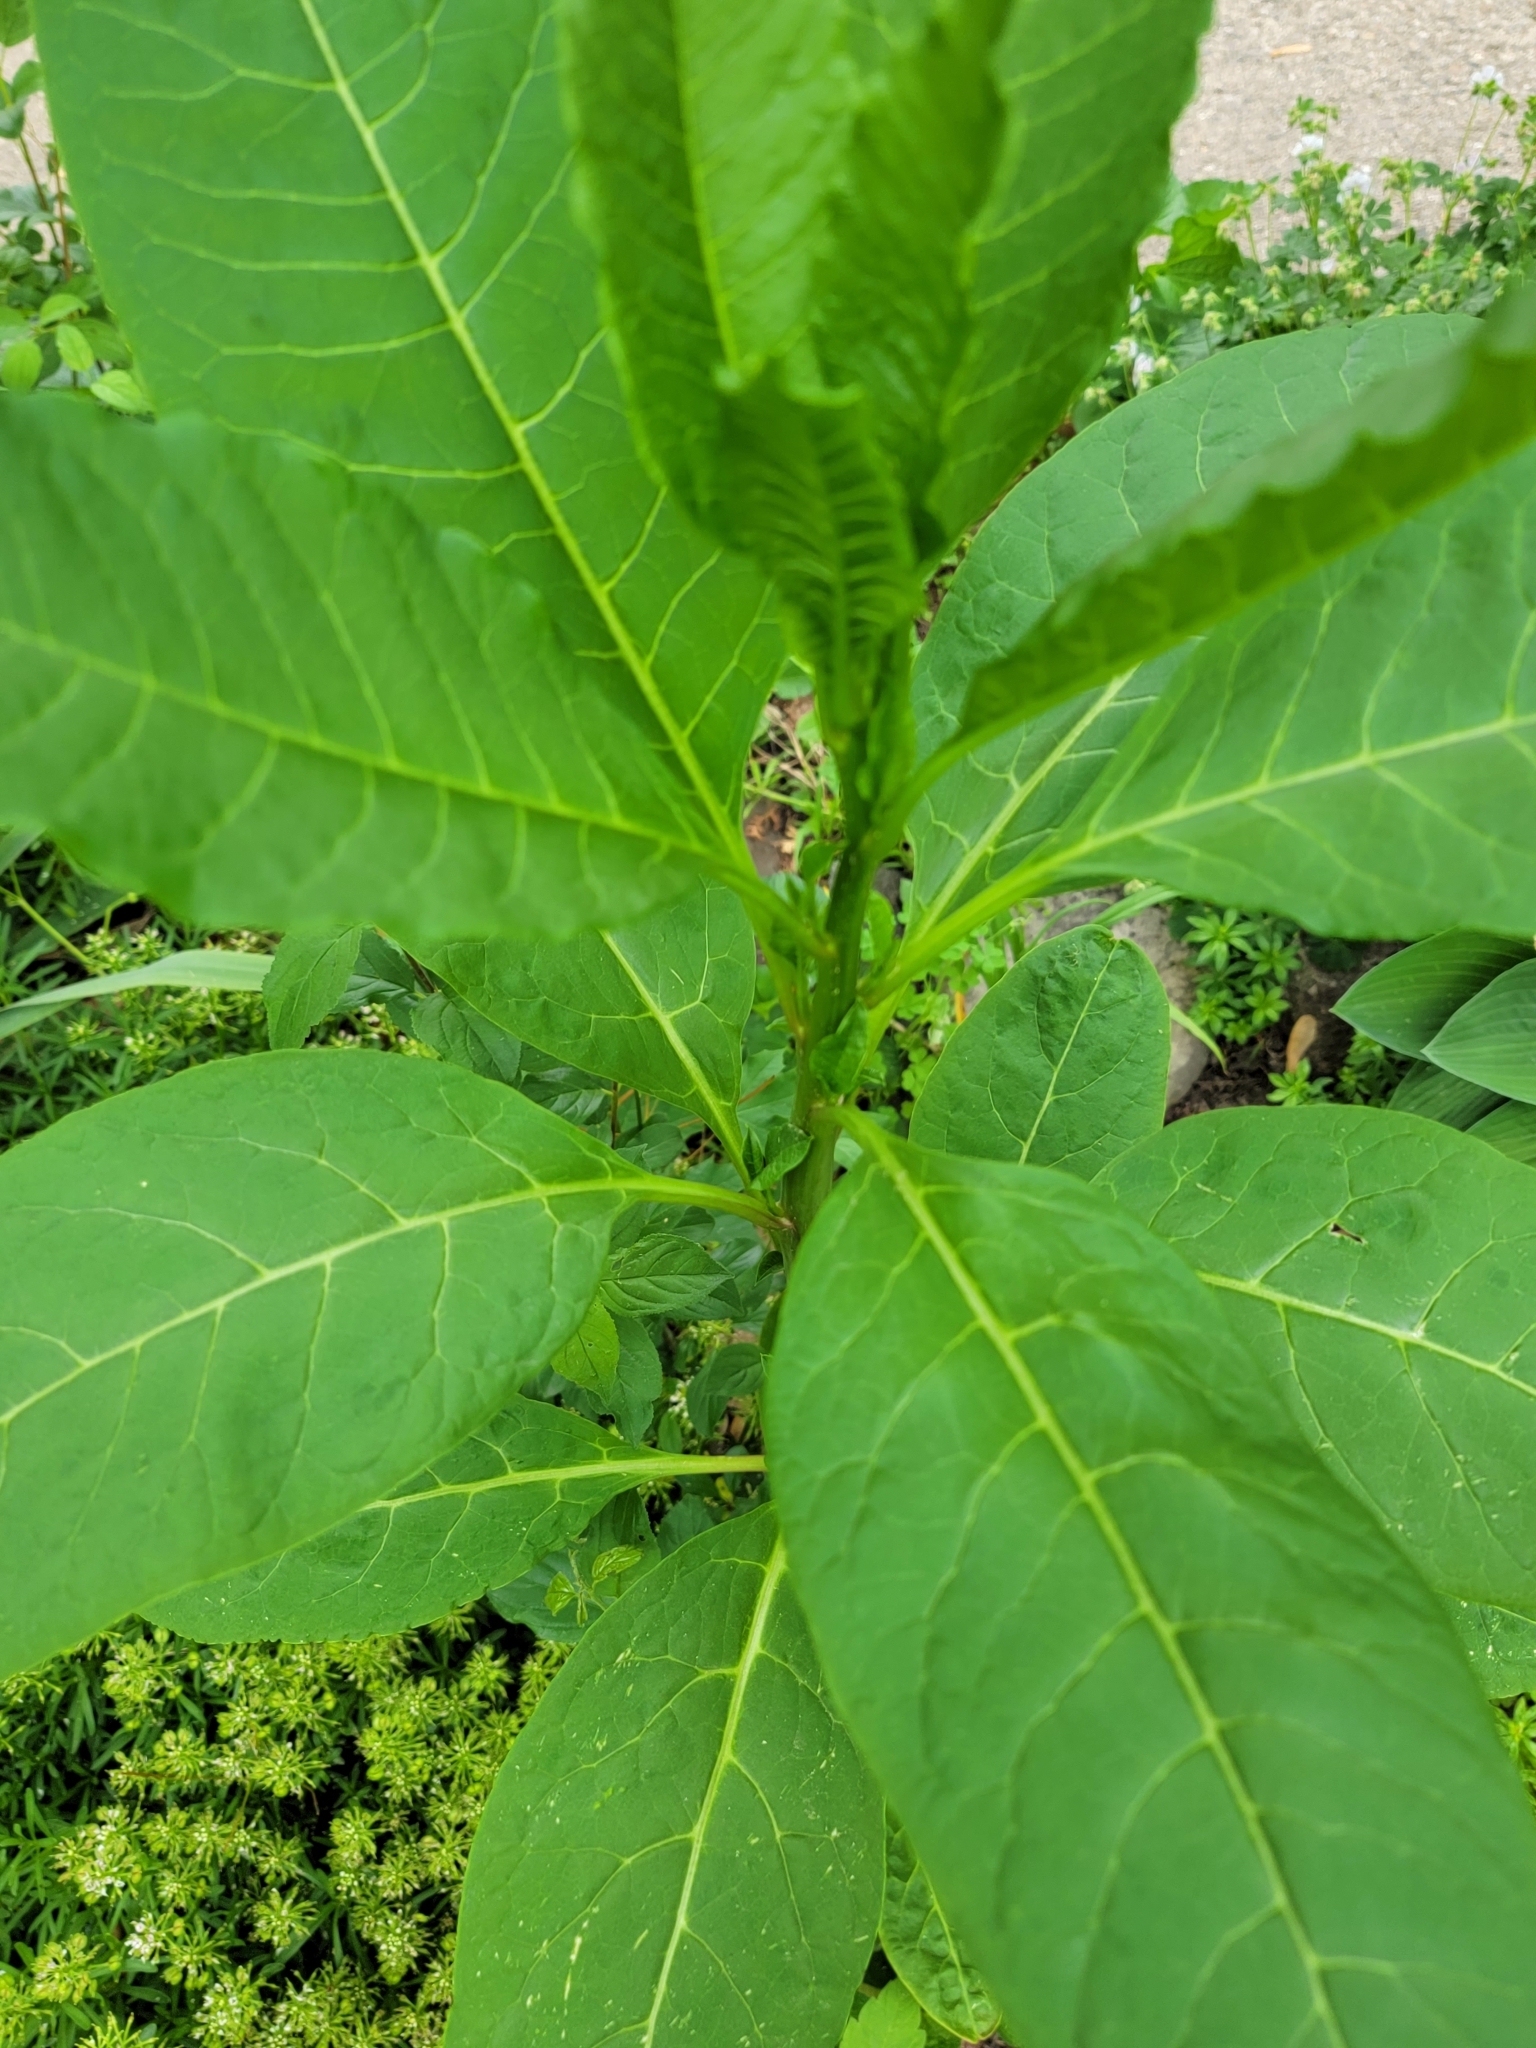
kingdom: Plantae
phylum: Tracheophyta
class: Magnoliopsida
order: Caryophyllales
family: Phytolaccaceae
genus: Phytolacca
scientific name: Phytolacca americana
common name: American pokeweed
